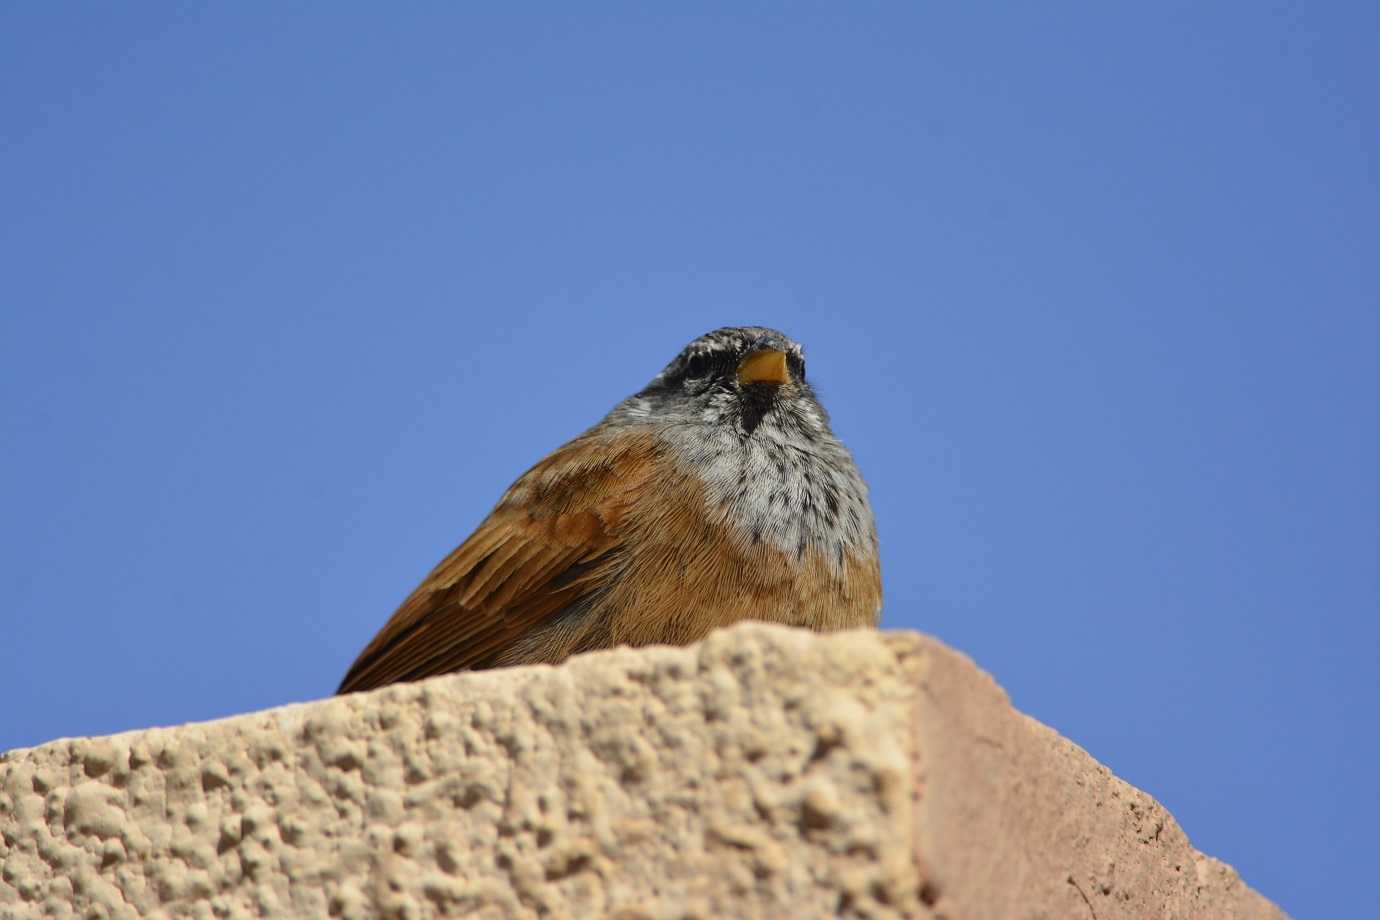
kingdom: Animalia
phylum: Chordata
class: Aves
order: Passeriformes
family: Emberizidae
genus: Emberiza
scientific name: Emberiza sahari
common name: House bunting
